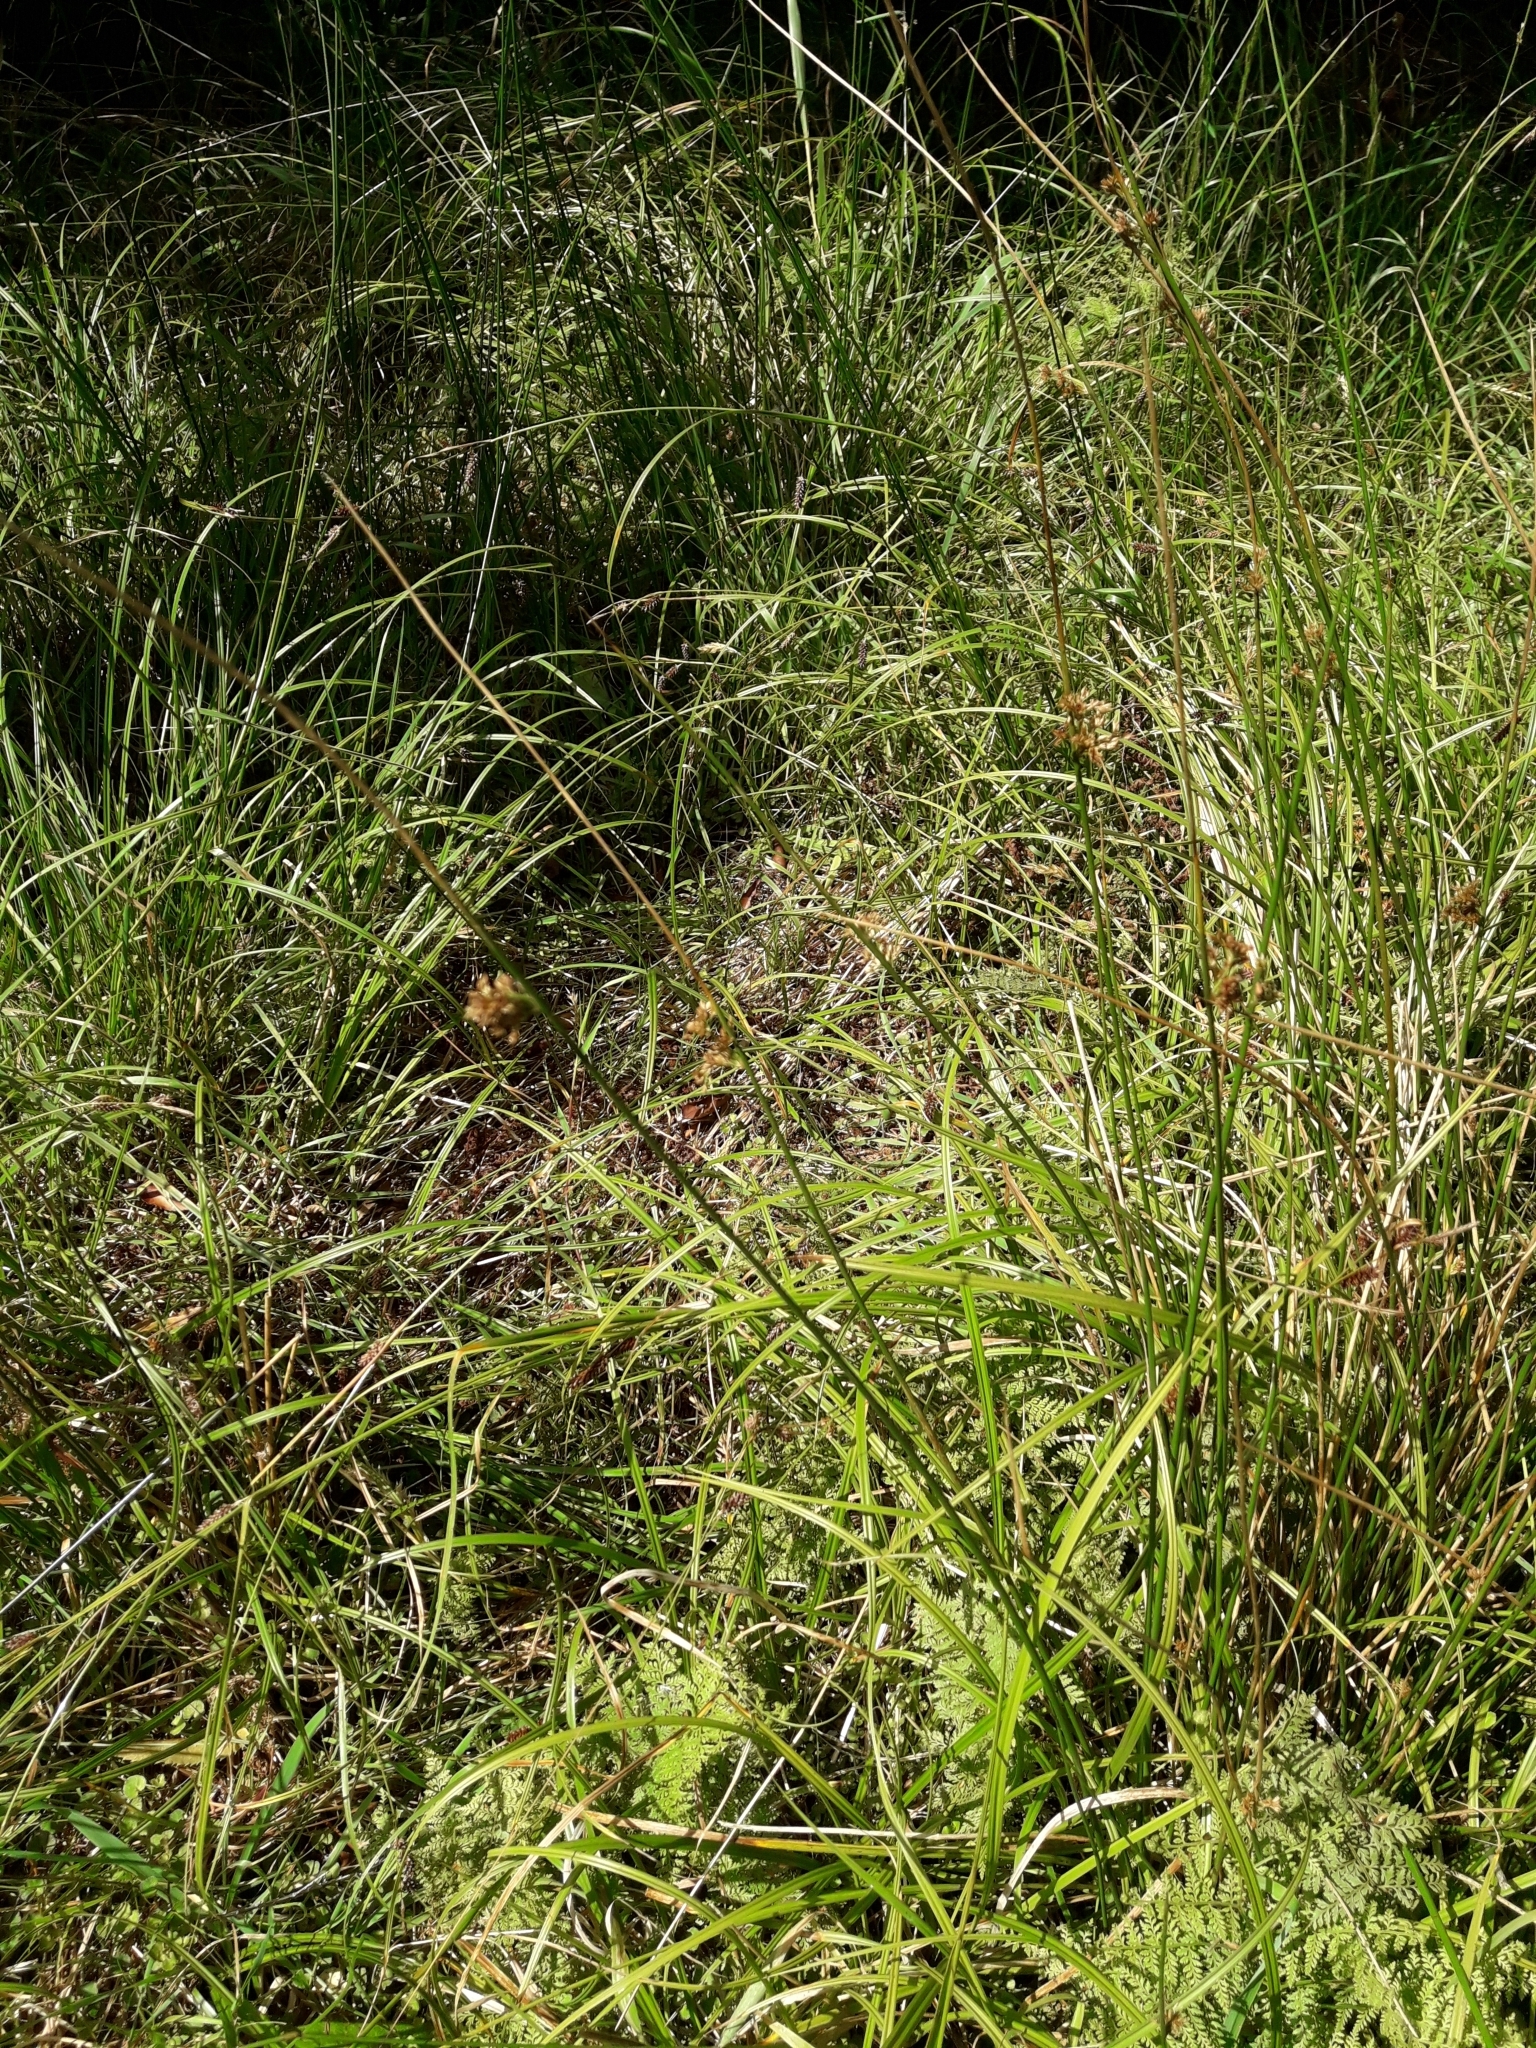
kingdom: Plantae
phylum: Tracheophyta
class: Liliopsida
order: Poales
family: Juncaceae
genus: Juncus
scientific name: Juncus effusus
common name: Soft rush
